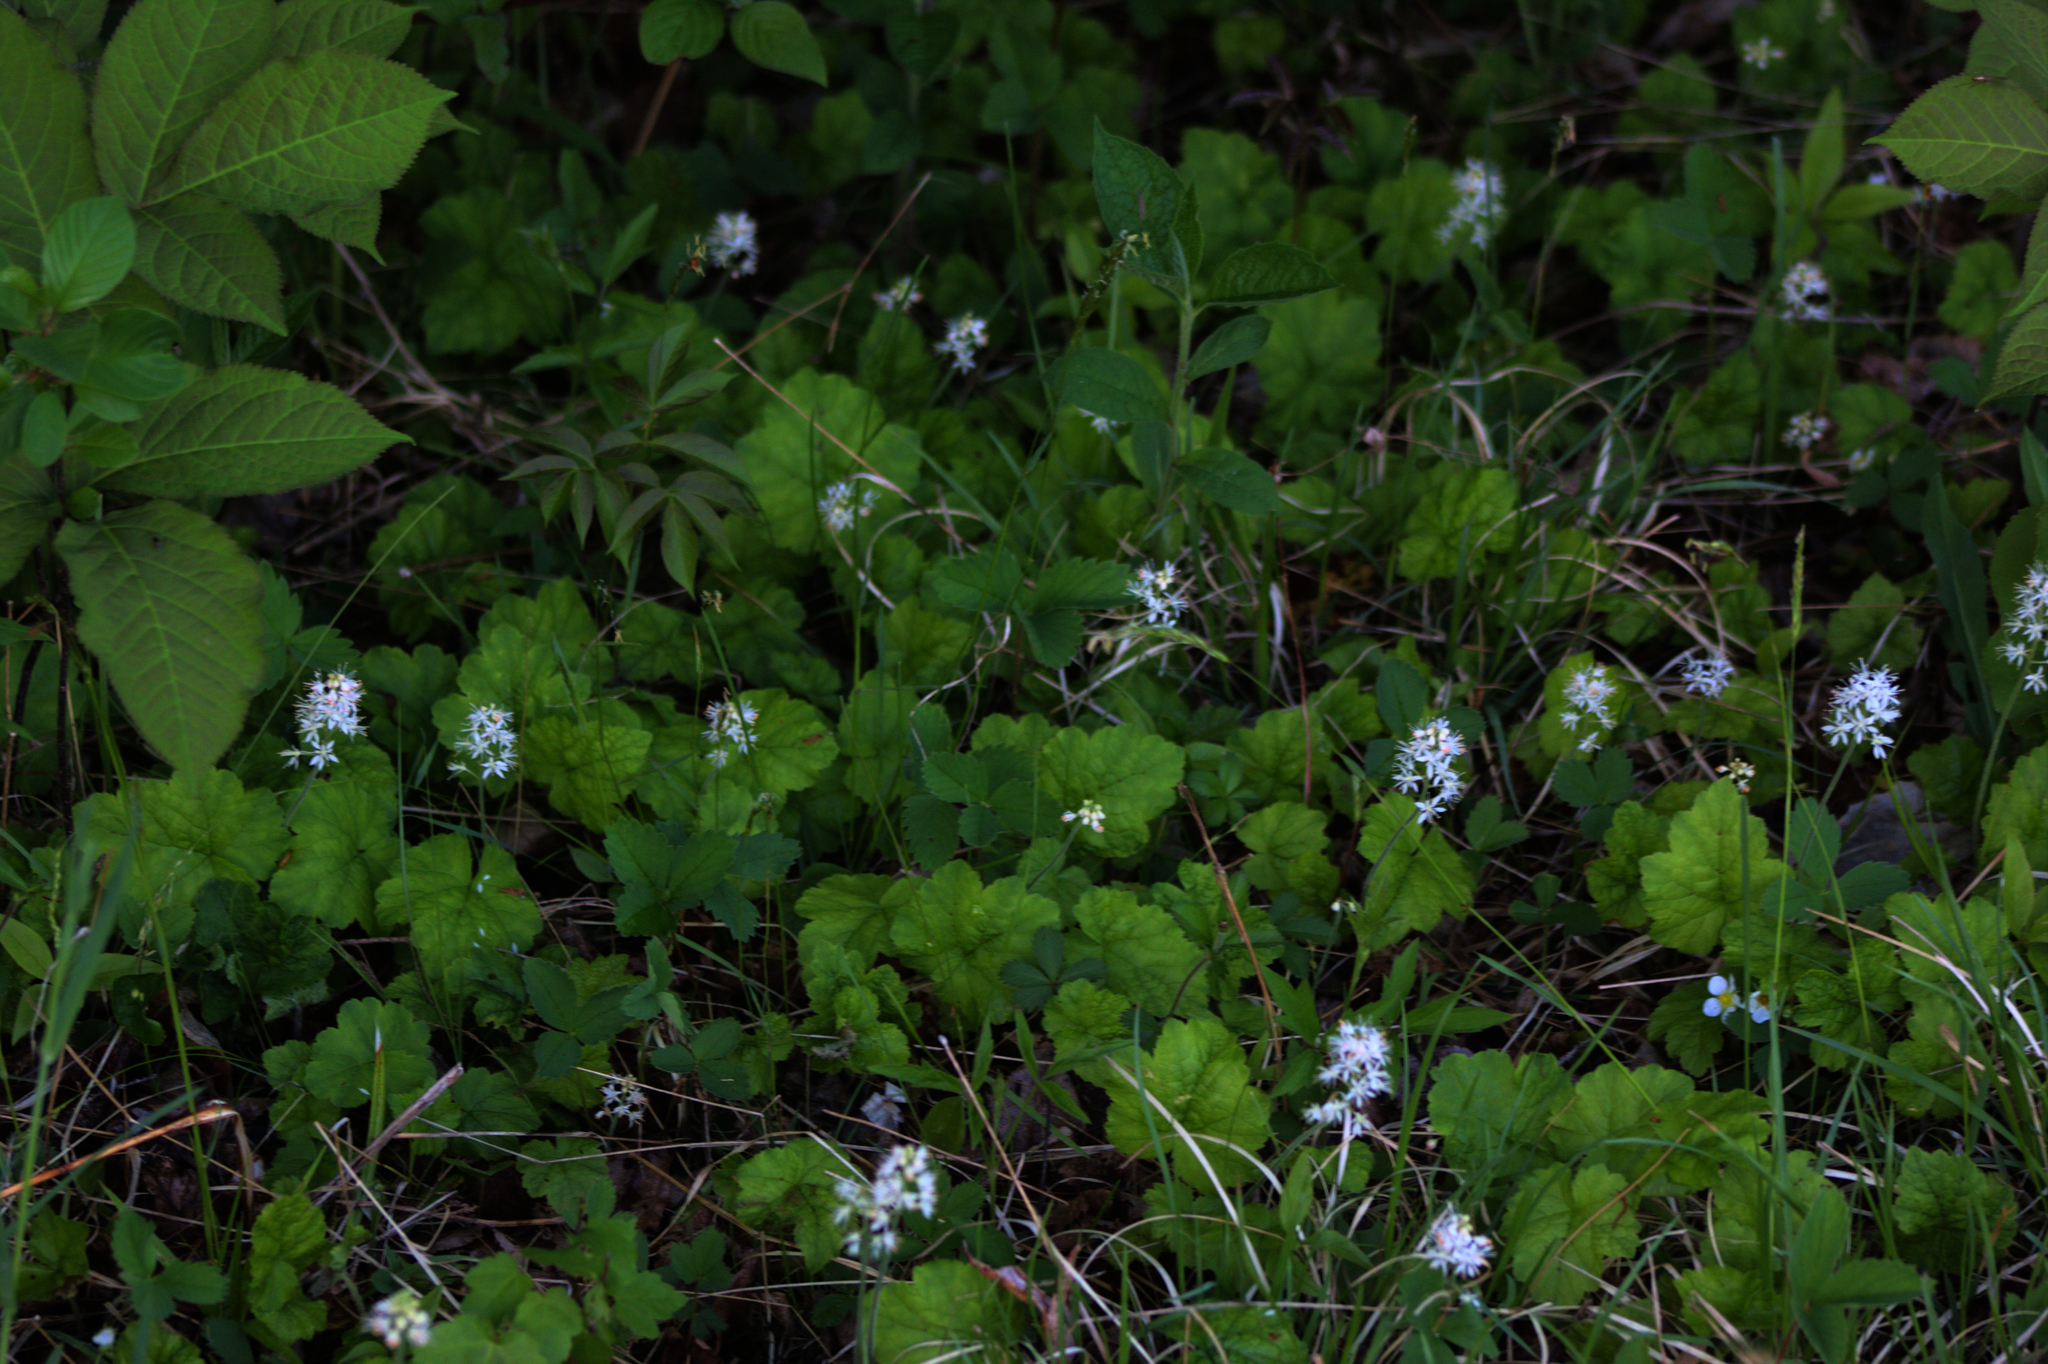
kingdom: Plantae
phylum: Tracheophyta
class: Magnoliopsida
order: Saxifragales
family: Saxifragaceae
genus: Tiarella
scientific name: Tiarella stolonifera
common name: Stoloniferous foamflower
